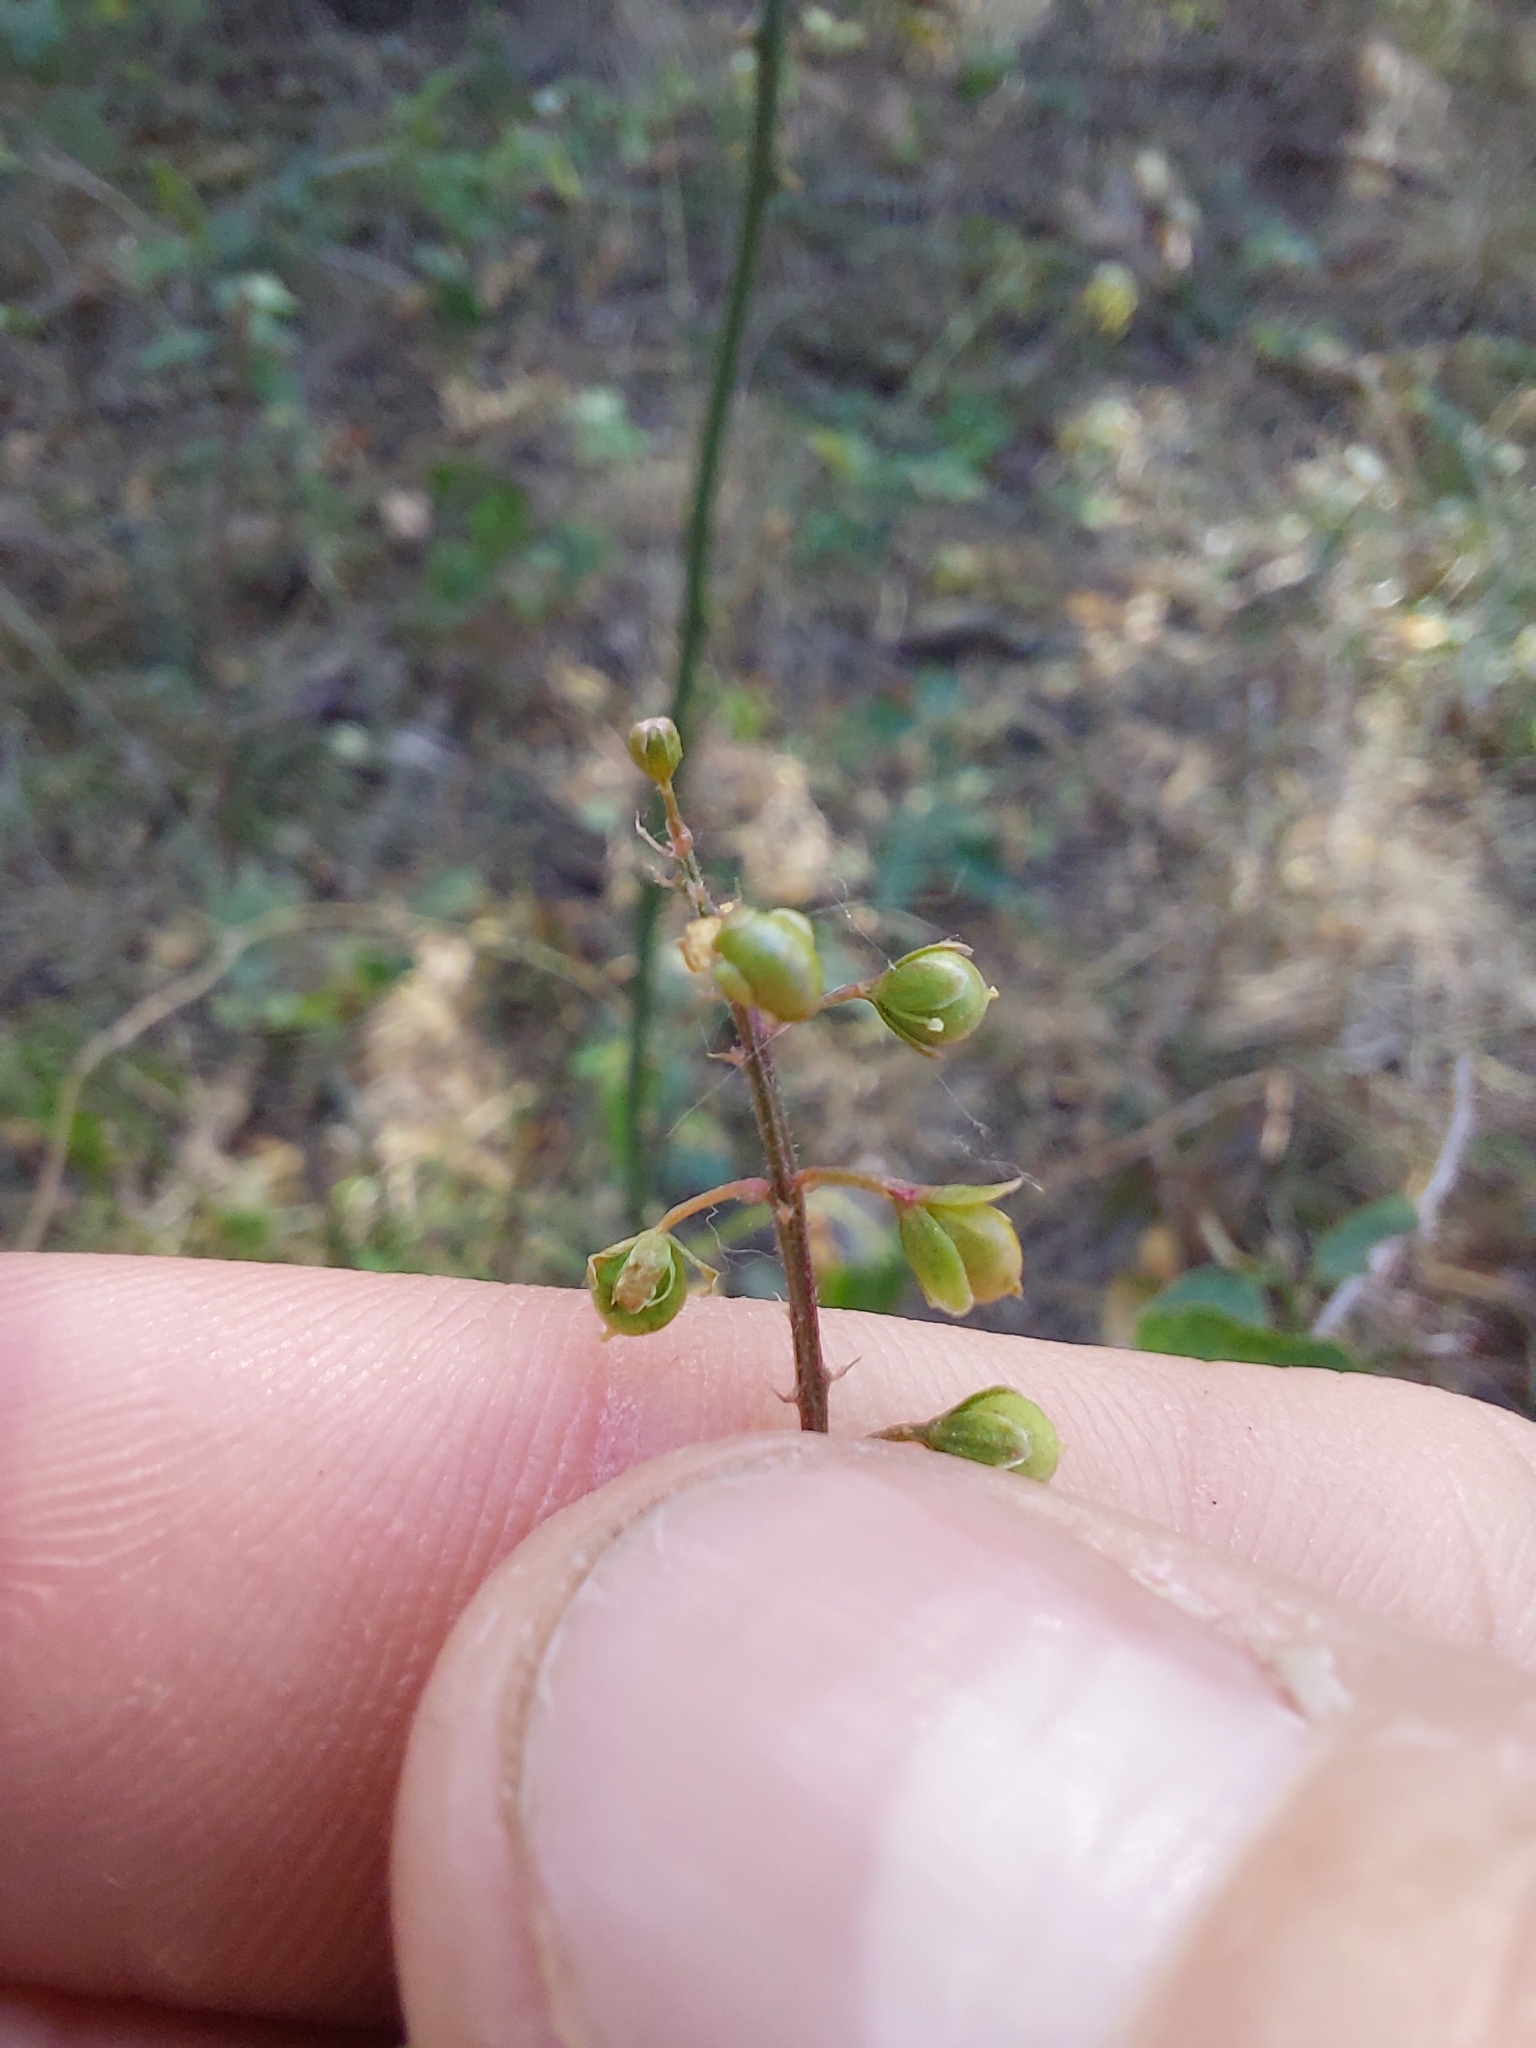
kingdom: Plantae
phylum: Tracheophyta
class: Magnoliopsida
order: Caryophyllales
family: Phytolaccaceae
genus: Rivina
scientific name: Rivina humilis
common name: Rougeplant
